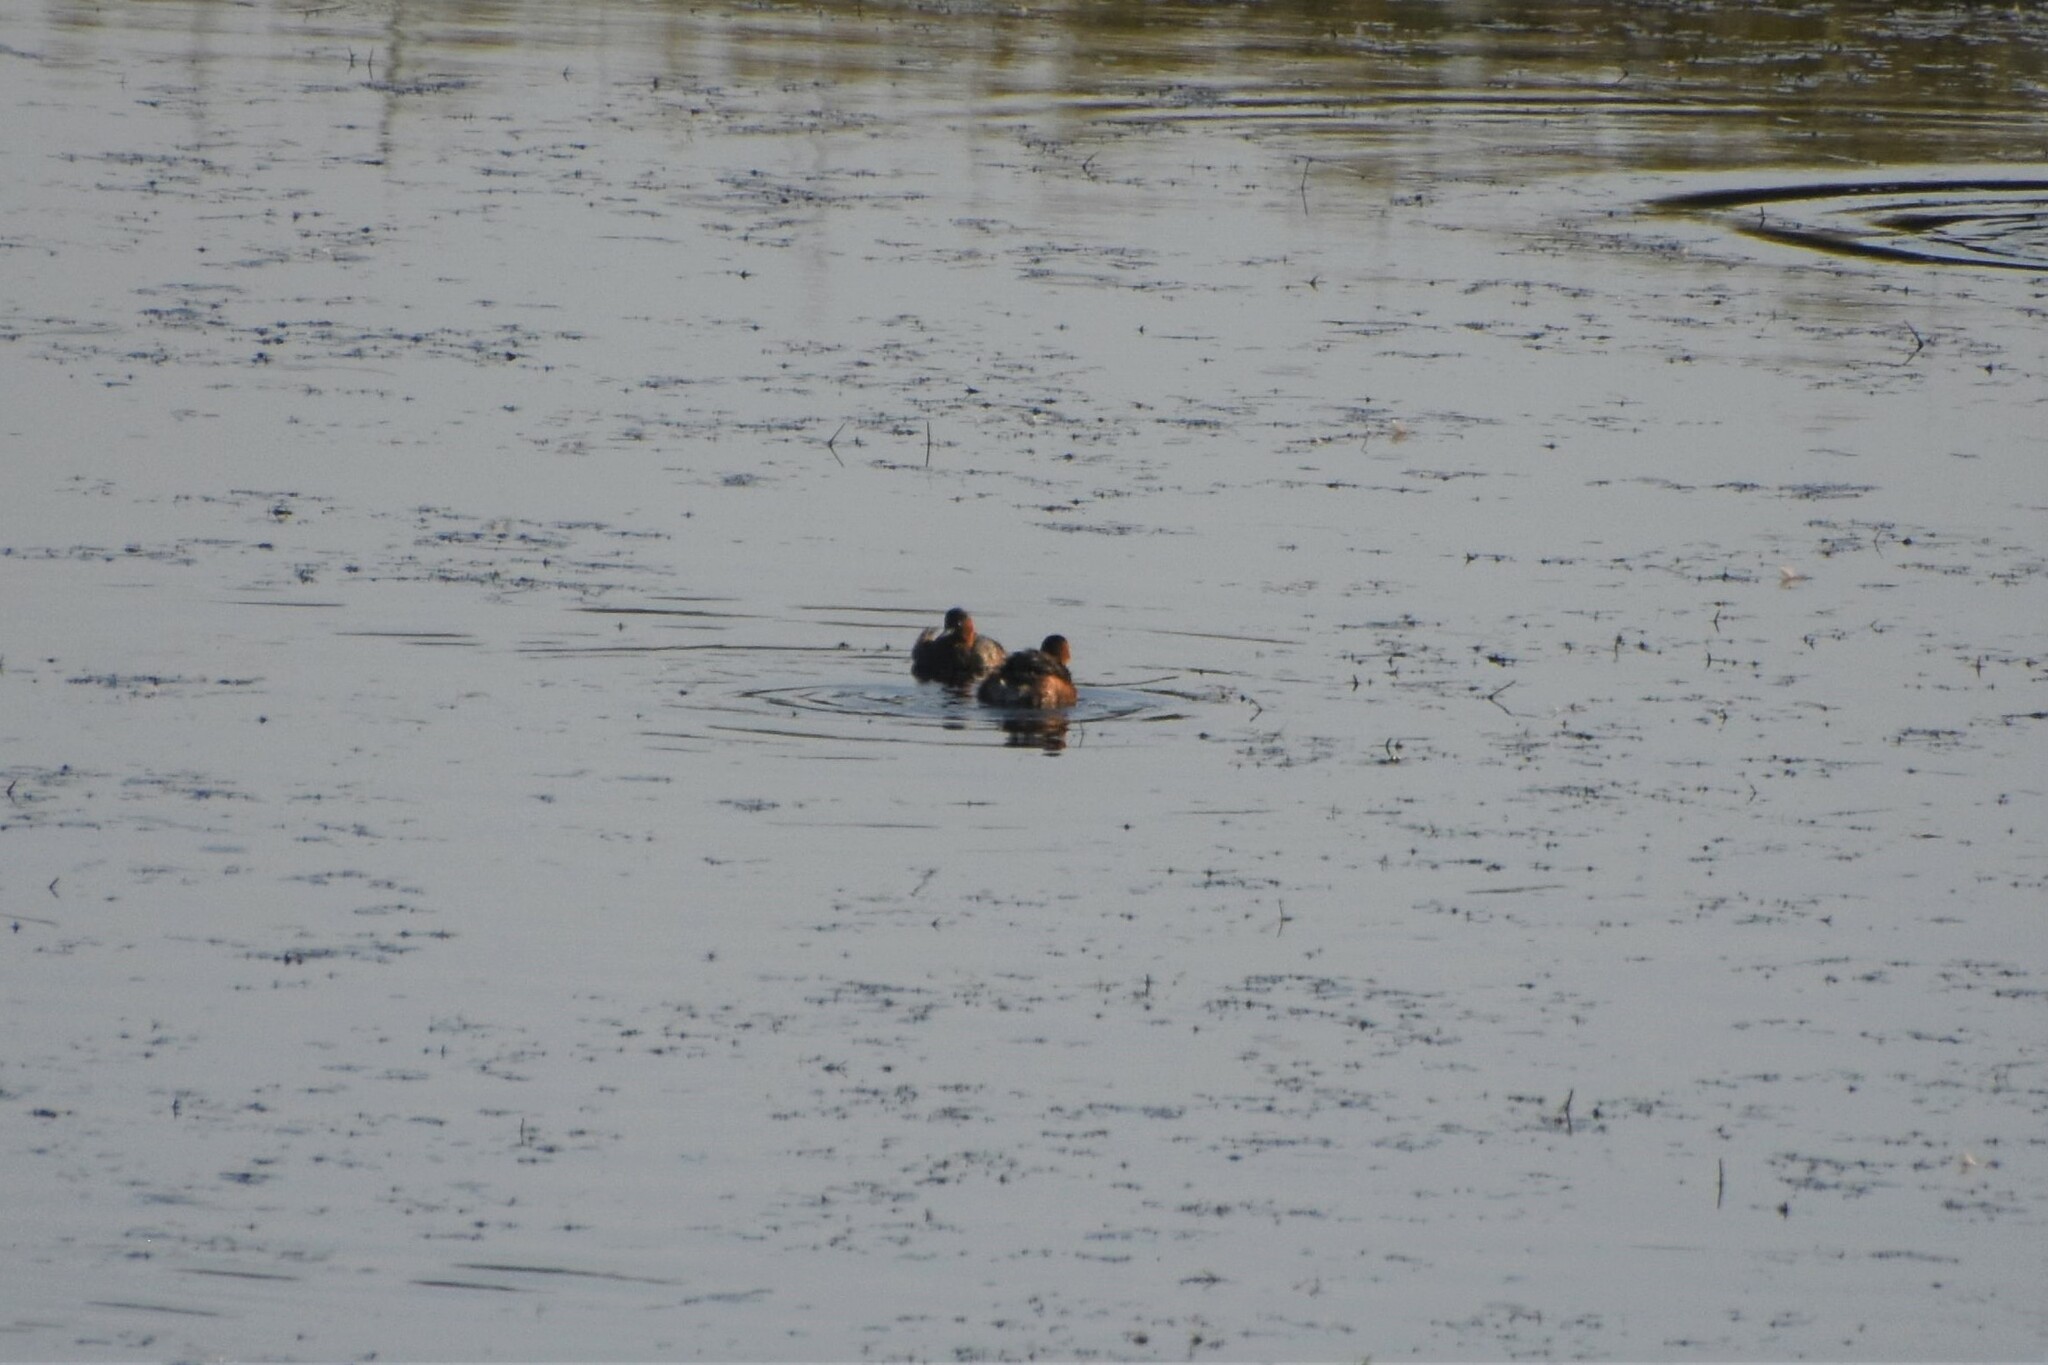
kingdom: Animalia
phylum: Chordata
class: Aves
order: Podicipediformes
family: Podicipedidae
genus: Tachybaptus
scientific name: Tachybaptus ruficollis
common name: Little grebe
